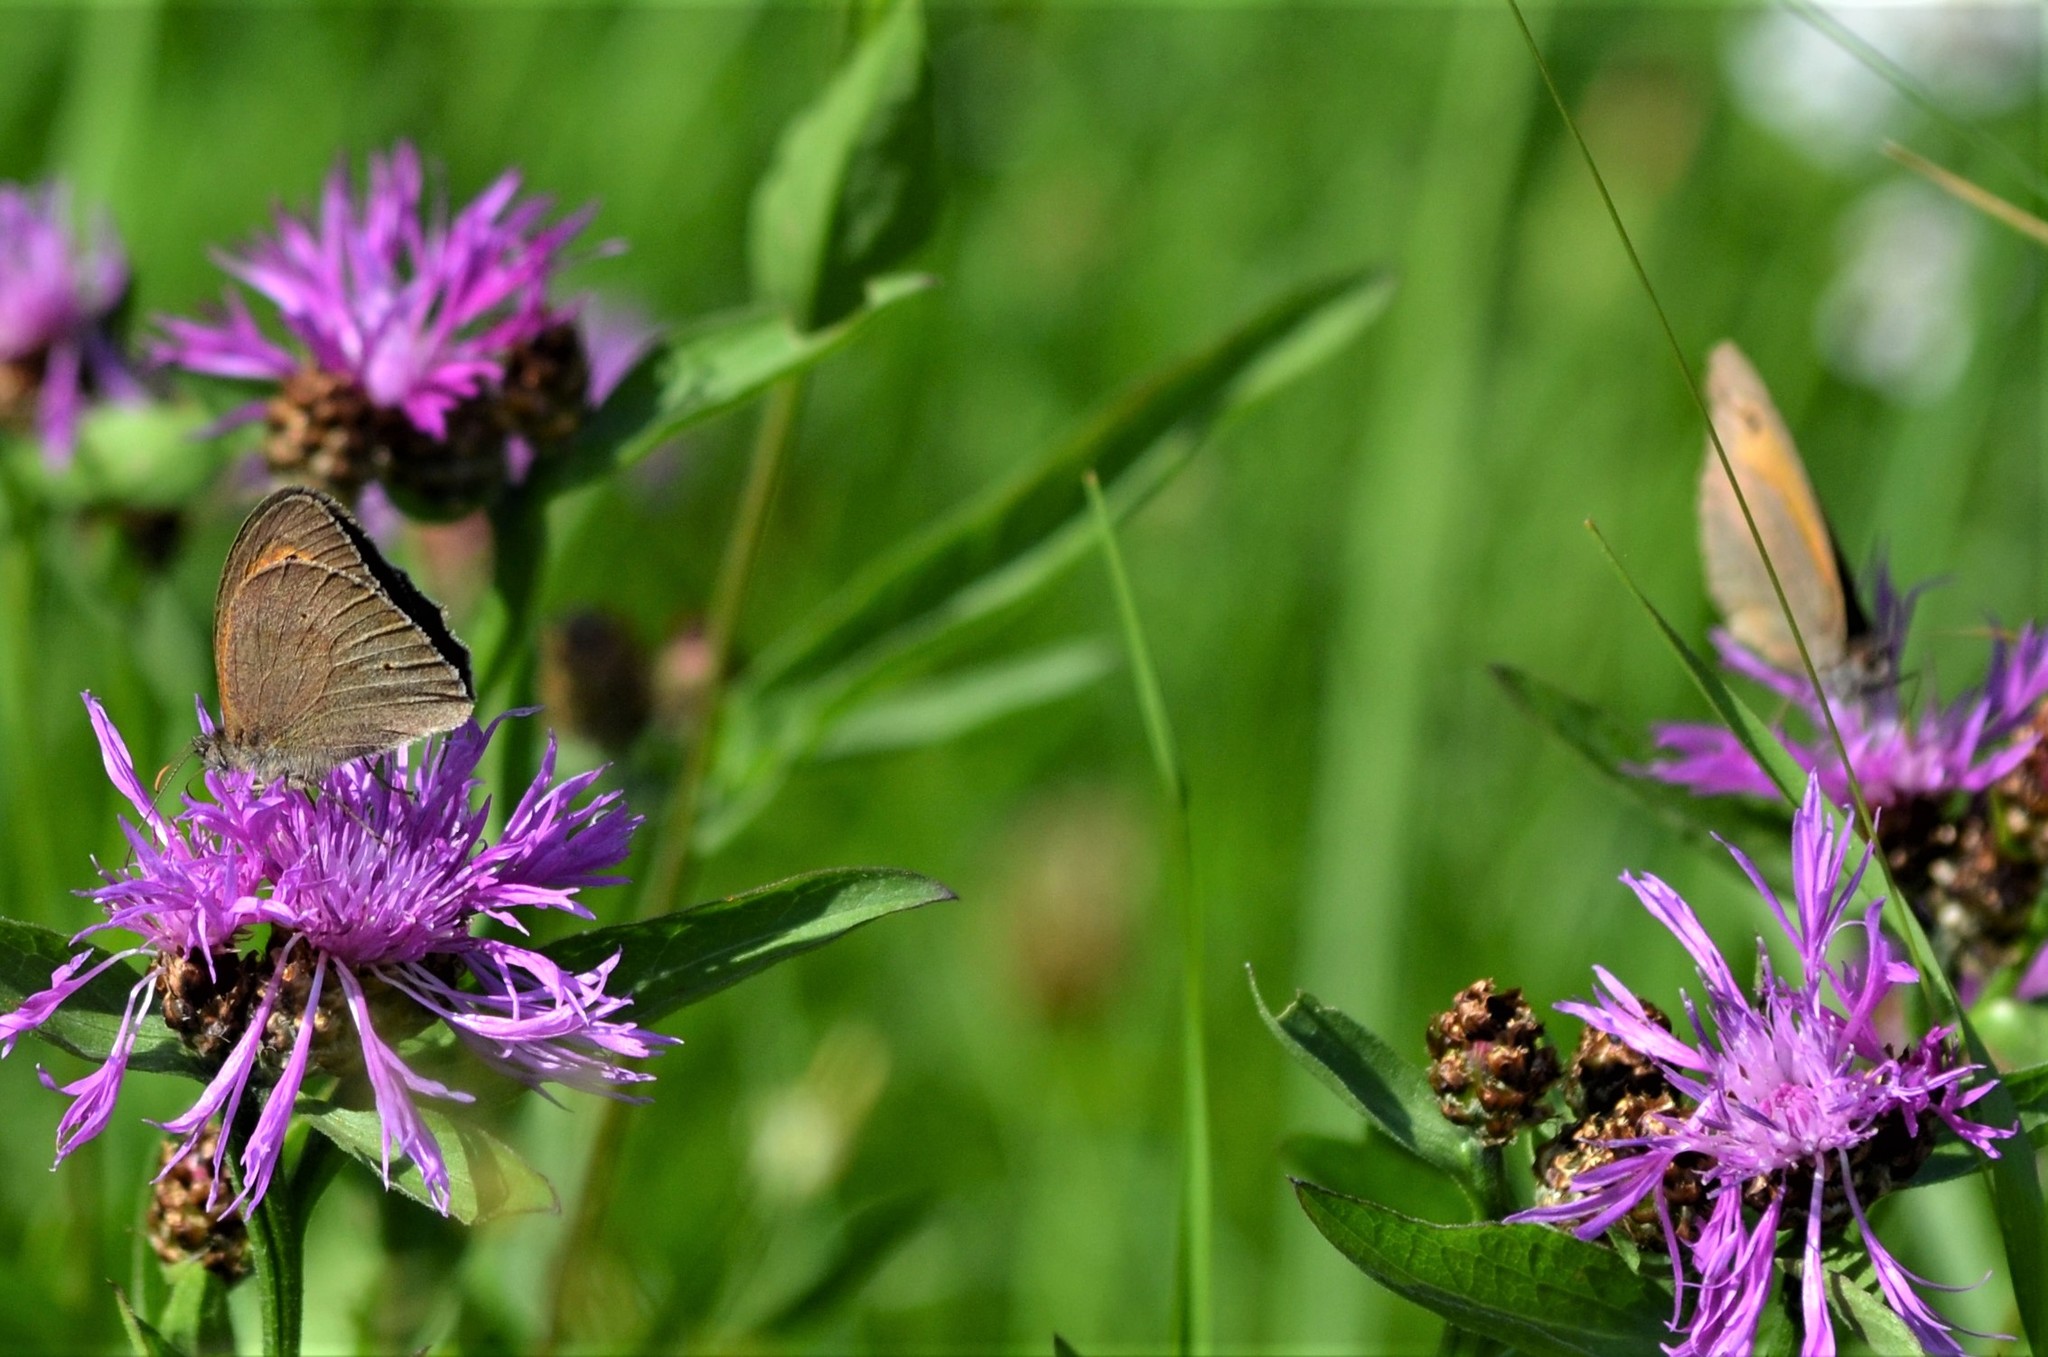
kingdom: Animalia
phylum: Arthropoda
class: Insecta
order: Lepidoptera
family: Nymphalidae
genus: Maniola
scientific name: Maniola jurtina
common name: Meadow brown
